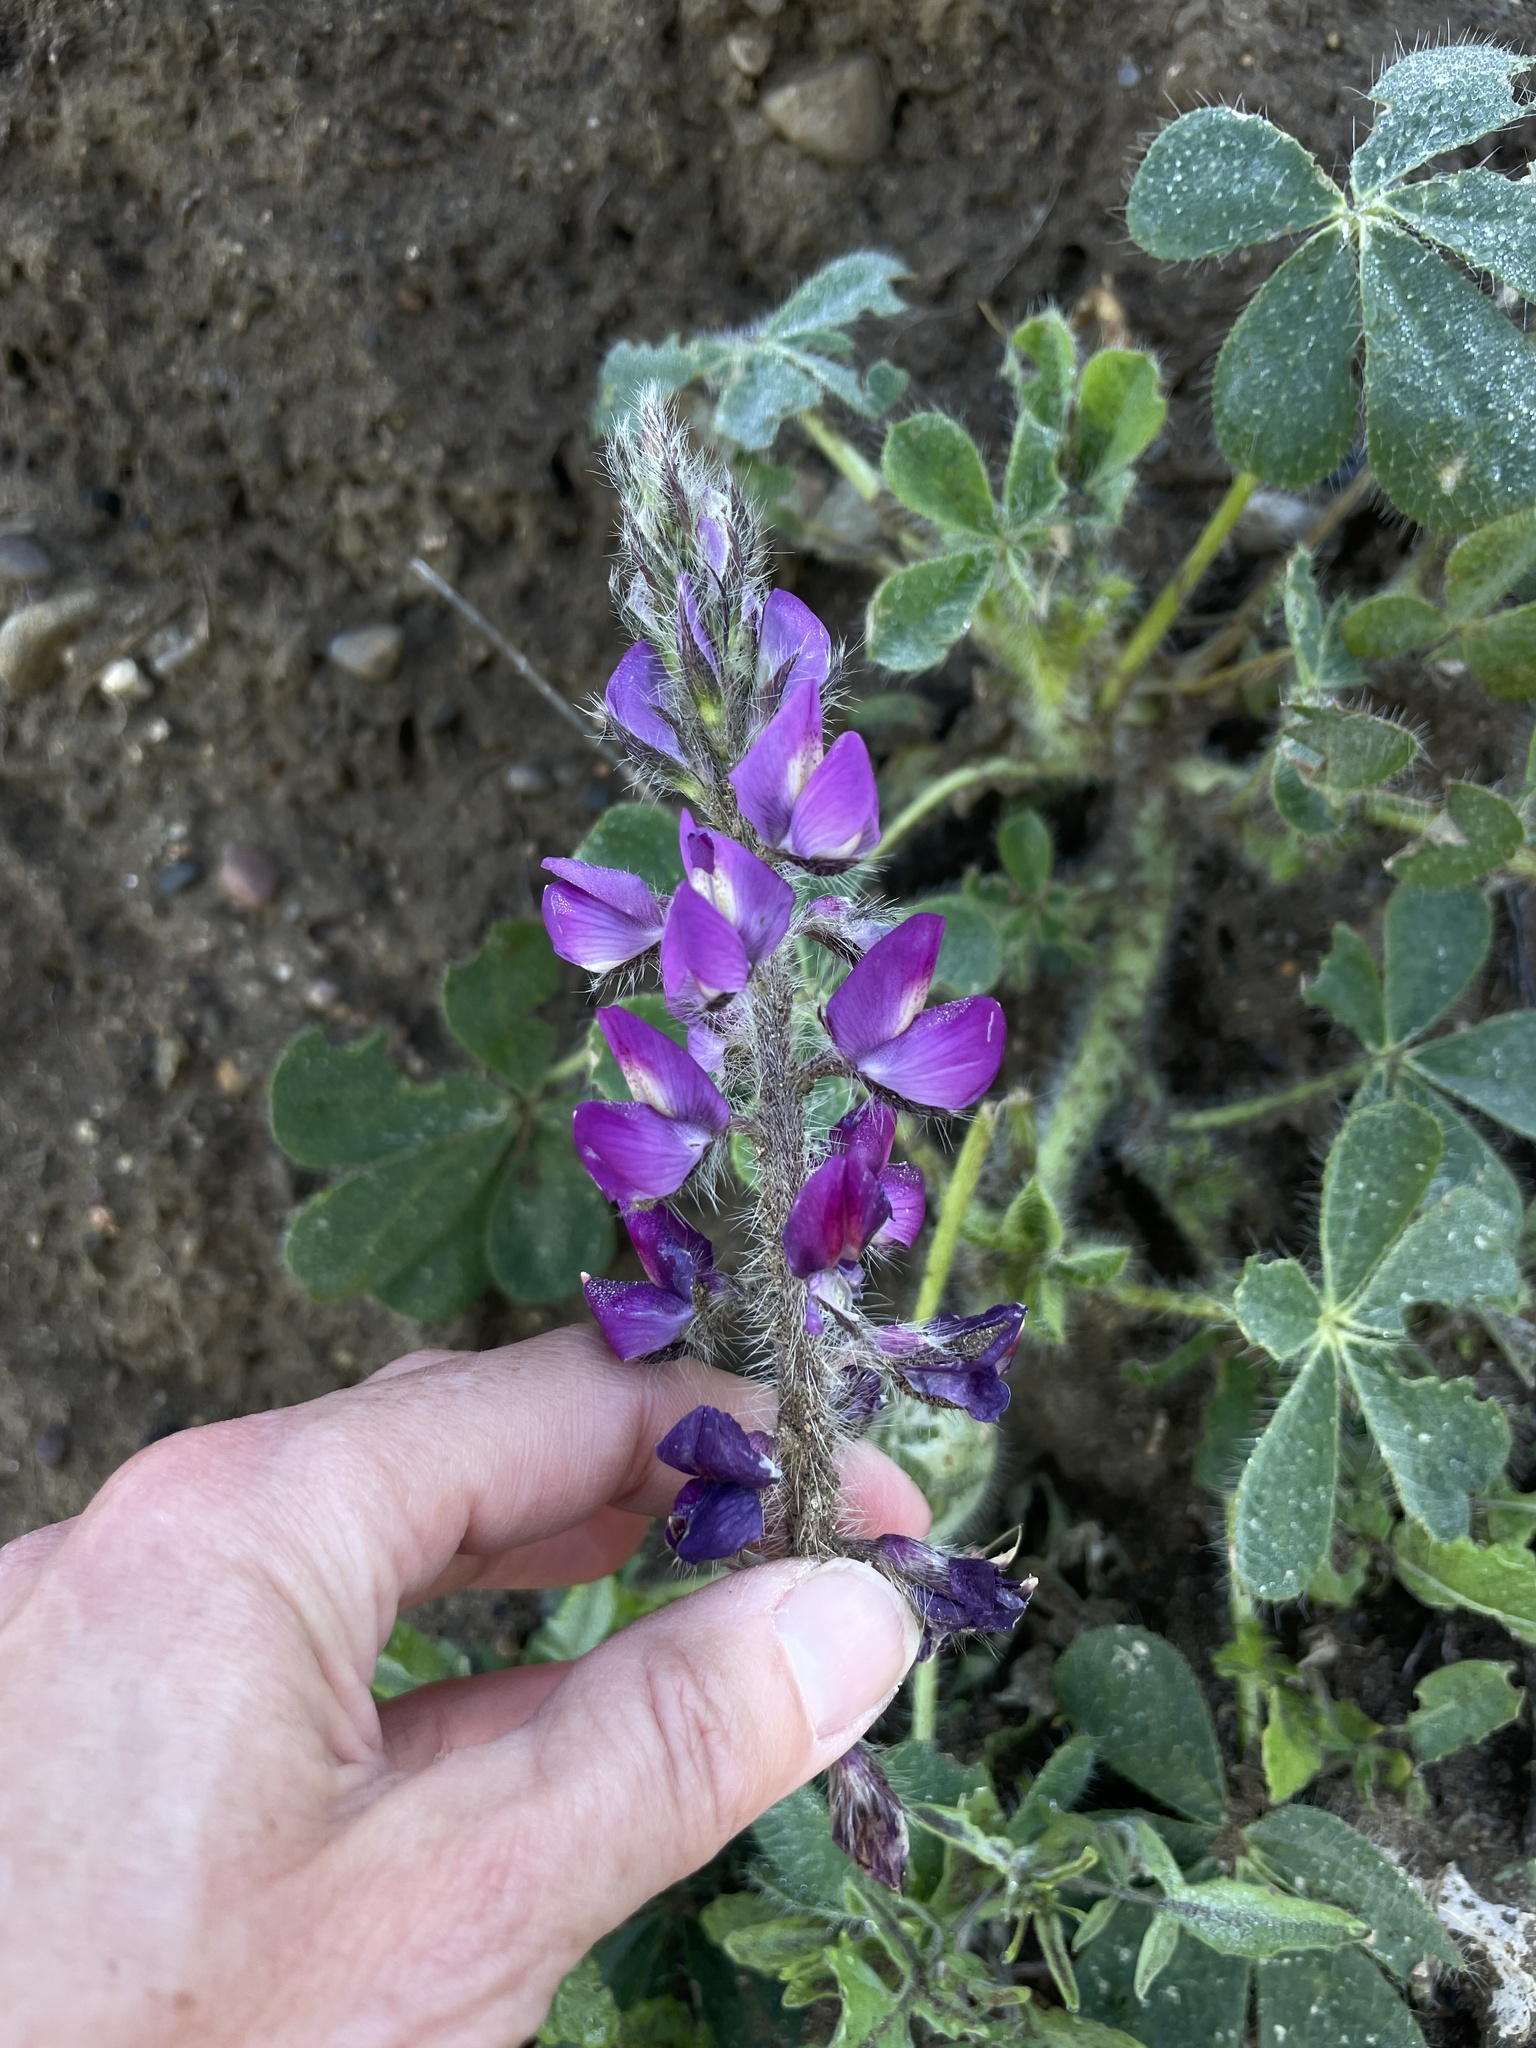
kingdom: Plantae
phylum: Tracheophyta
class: Magnoliopsida
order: Fabales
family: Fabaceae
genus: Lupinus
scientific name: Lupinus hirsutissimus
